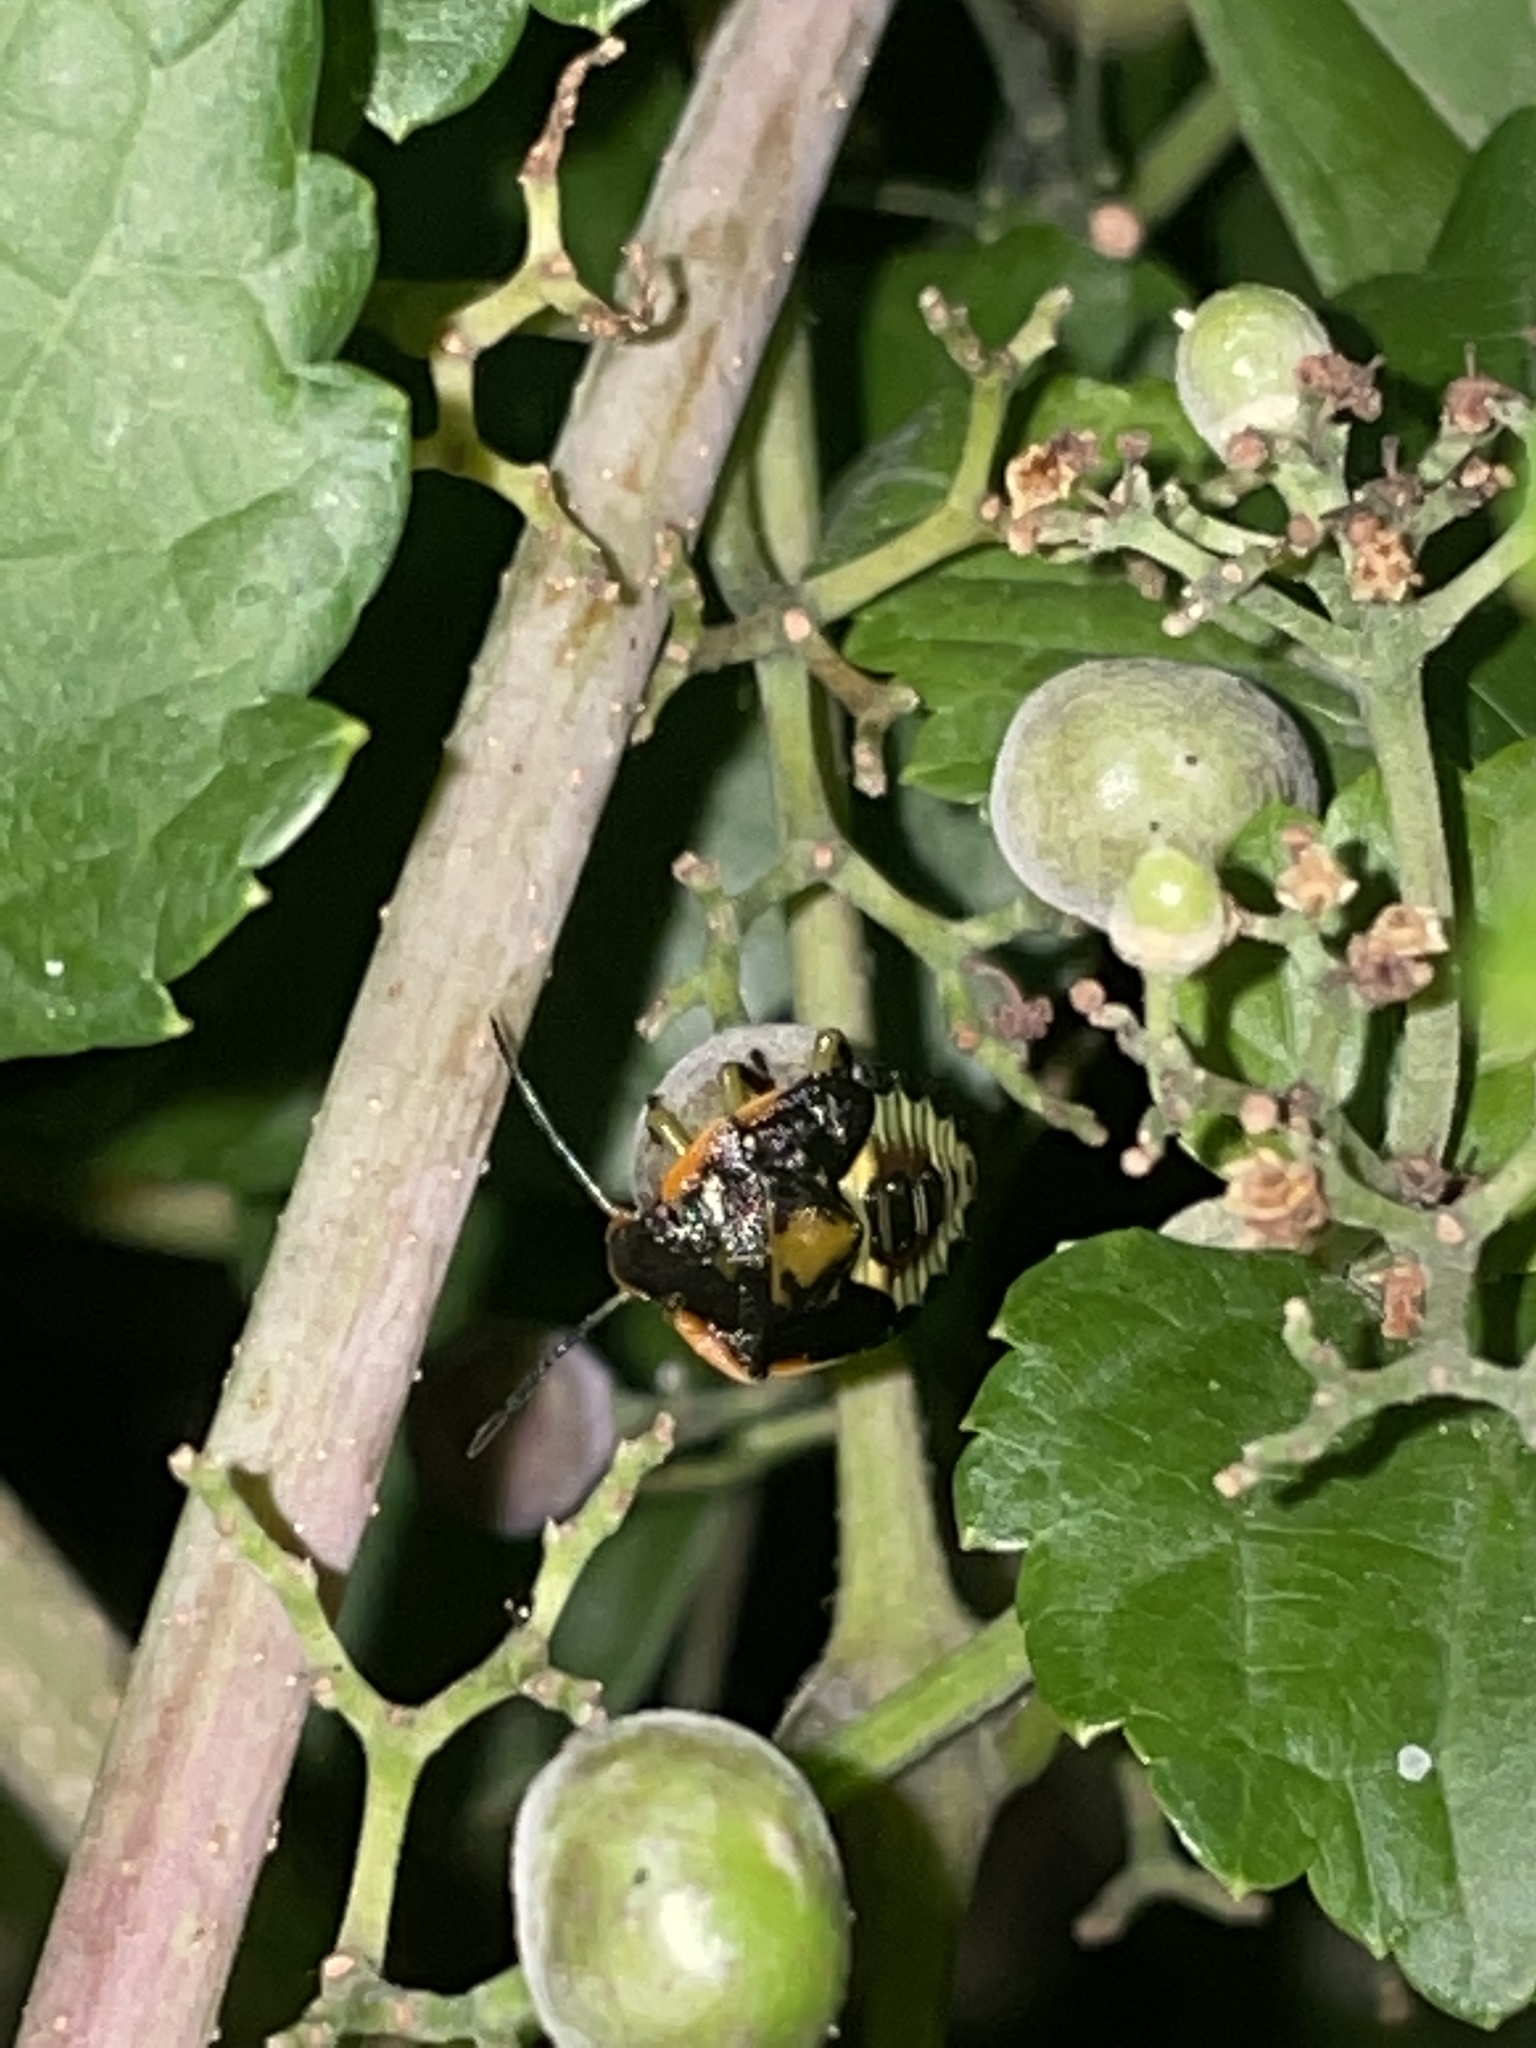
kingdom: Animalia
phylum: Arthropoda
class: Insecta
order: Hemiptera
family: Pentatomidae
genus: Chinavia
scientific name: Chinavia hilaris
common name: Green stink bug
